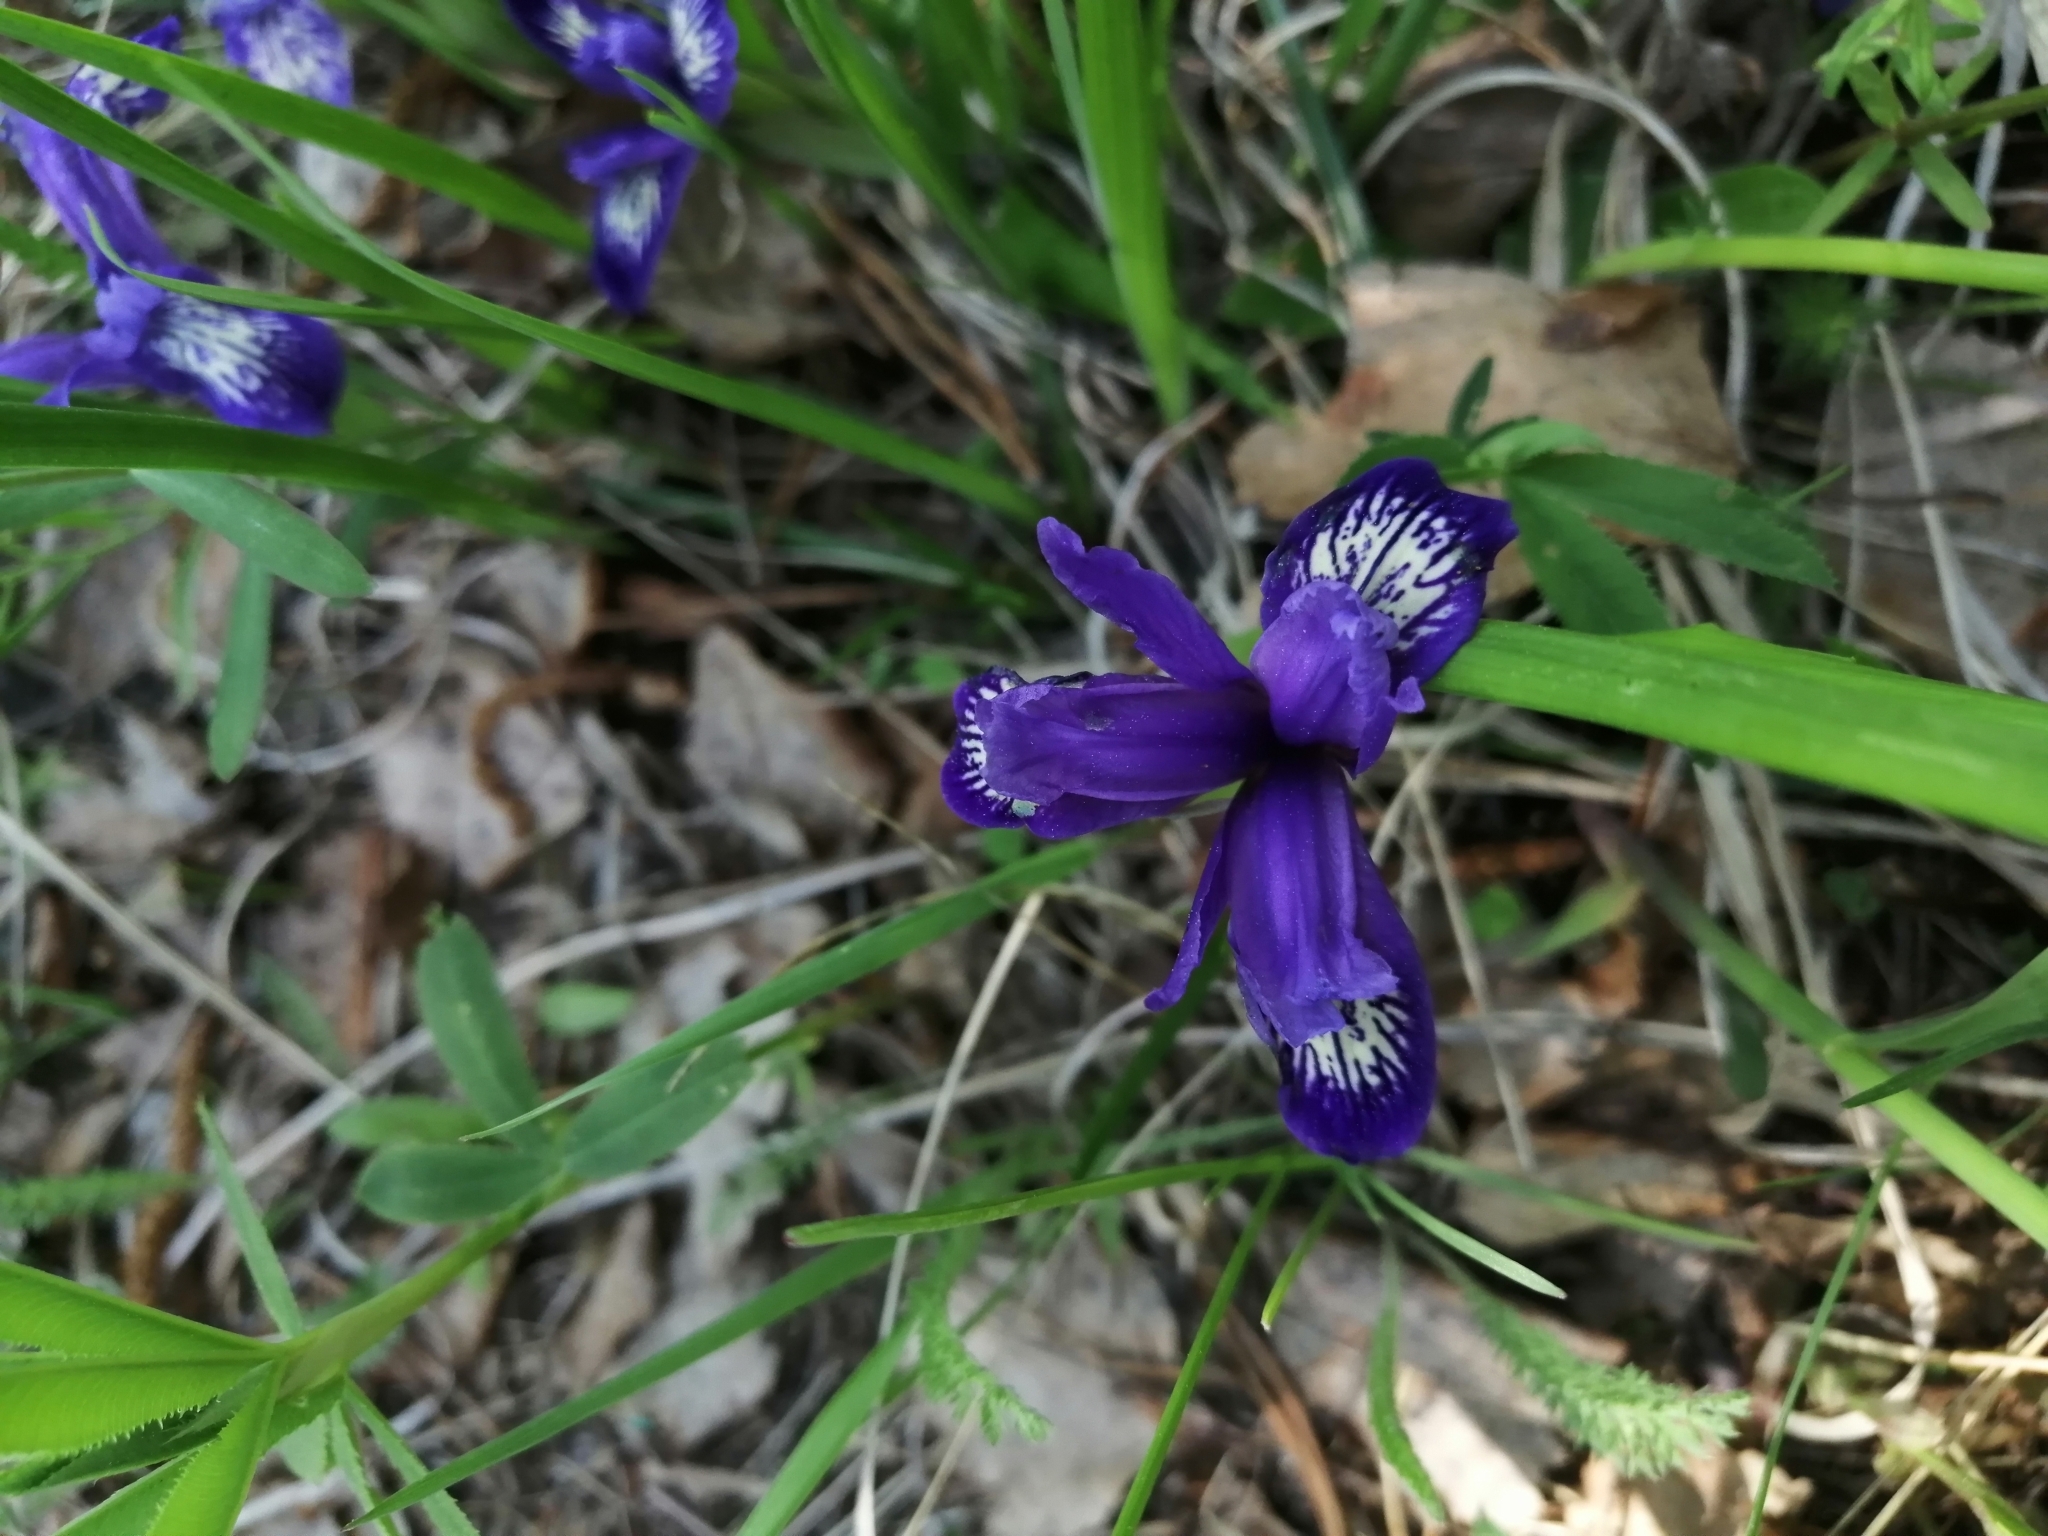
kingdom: Plantae
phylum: Tracheophyta
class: Liliopsida
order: Asparagales
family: Iridaceae
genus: Iris
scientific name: Iris ruthenica
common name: Purple-bract iris
